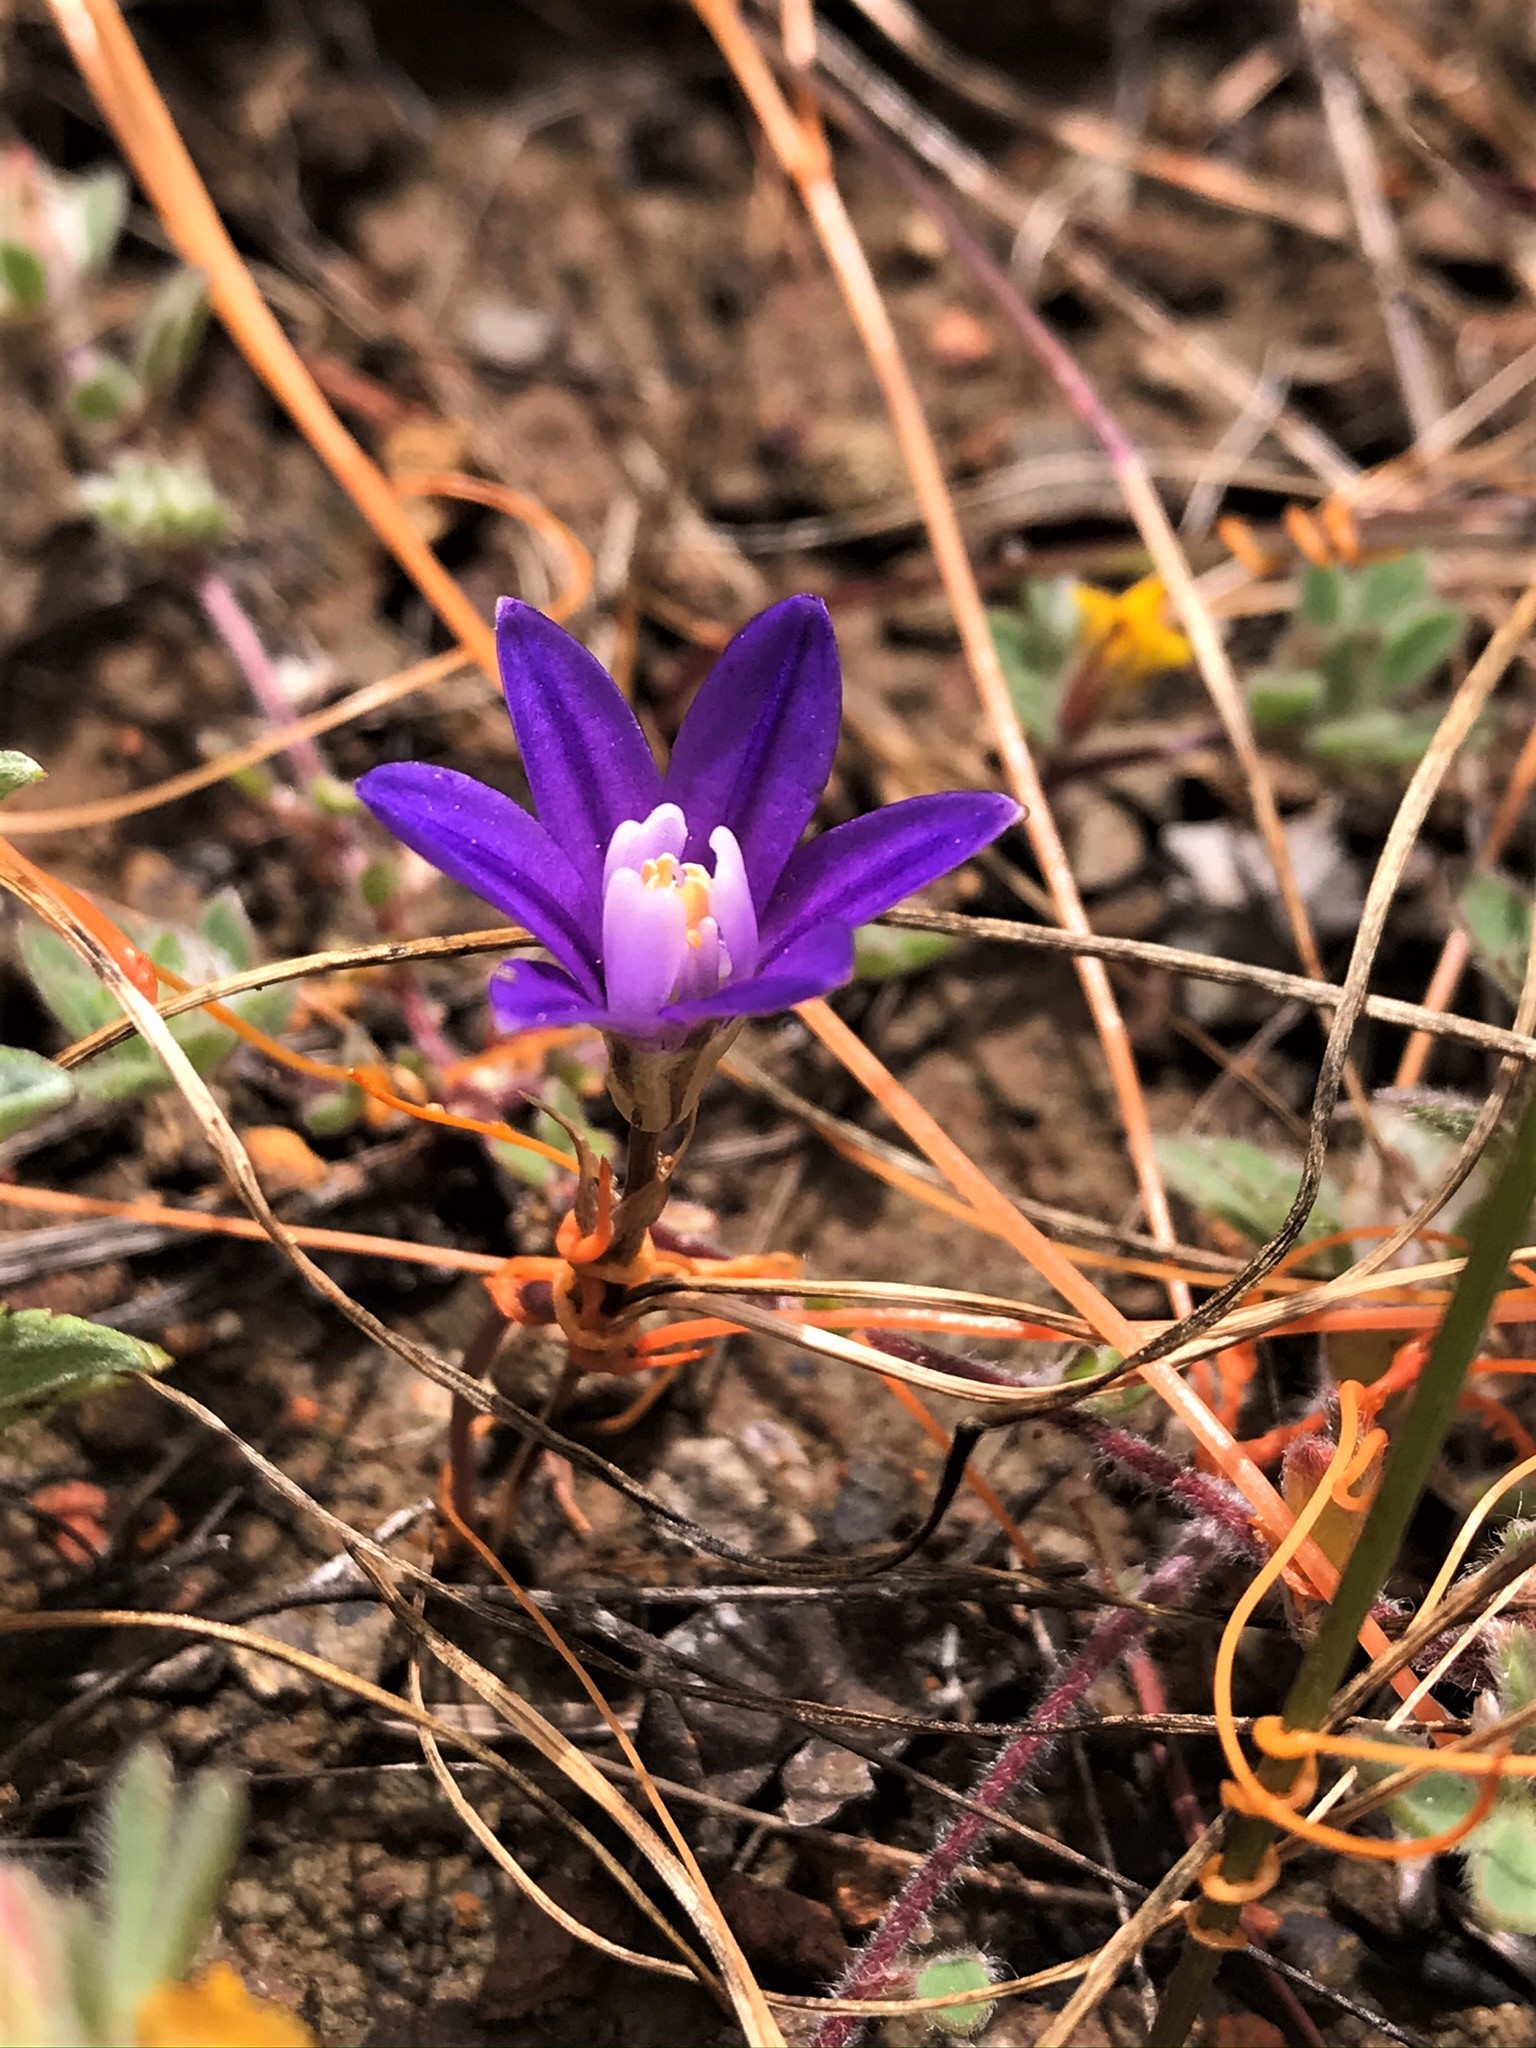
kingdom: Plantae
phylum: Tracheophyta
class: Liliopsida
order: Asparagales
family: Asparagaceae
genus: Brodiaea
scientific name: Brodiaea stellaris
